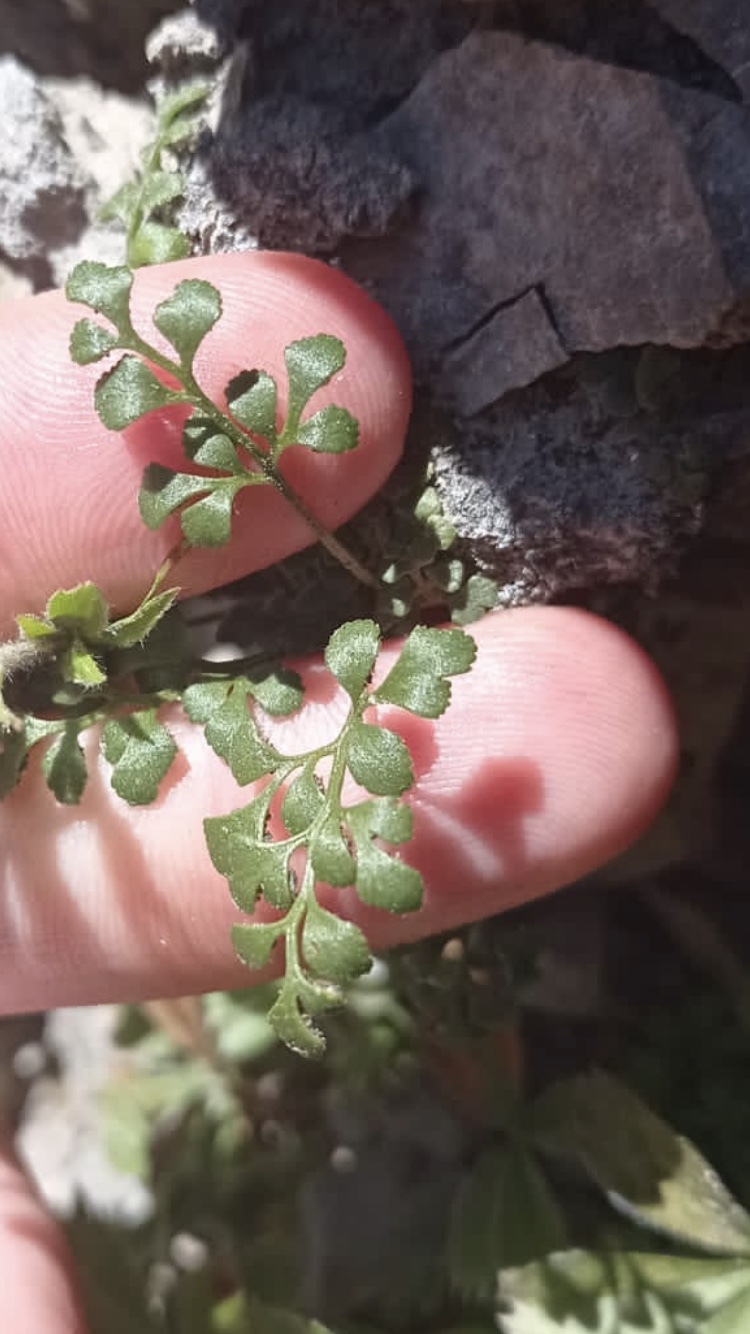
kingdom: Plantae
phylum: Tracheophyta
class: Polypodiopsida
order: Polypodiales
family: Aspleniaceae
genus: Asplenium
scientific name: Asplenium ruta-muraria
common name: Wall-rue
